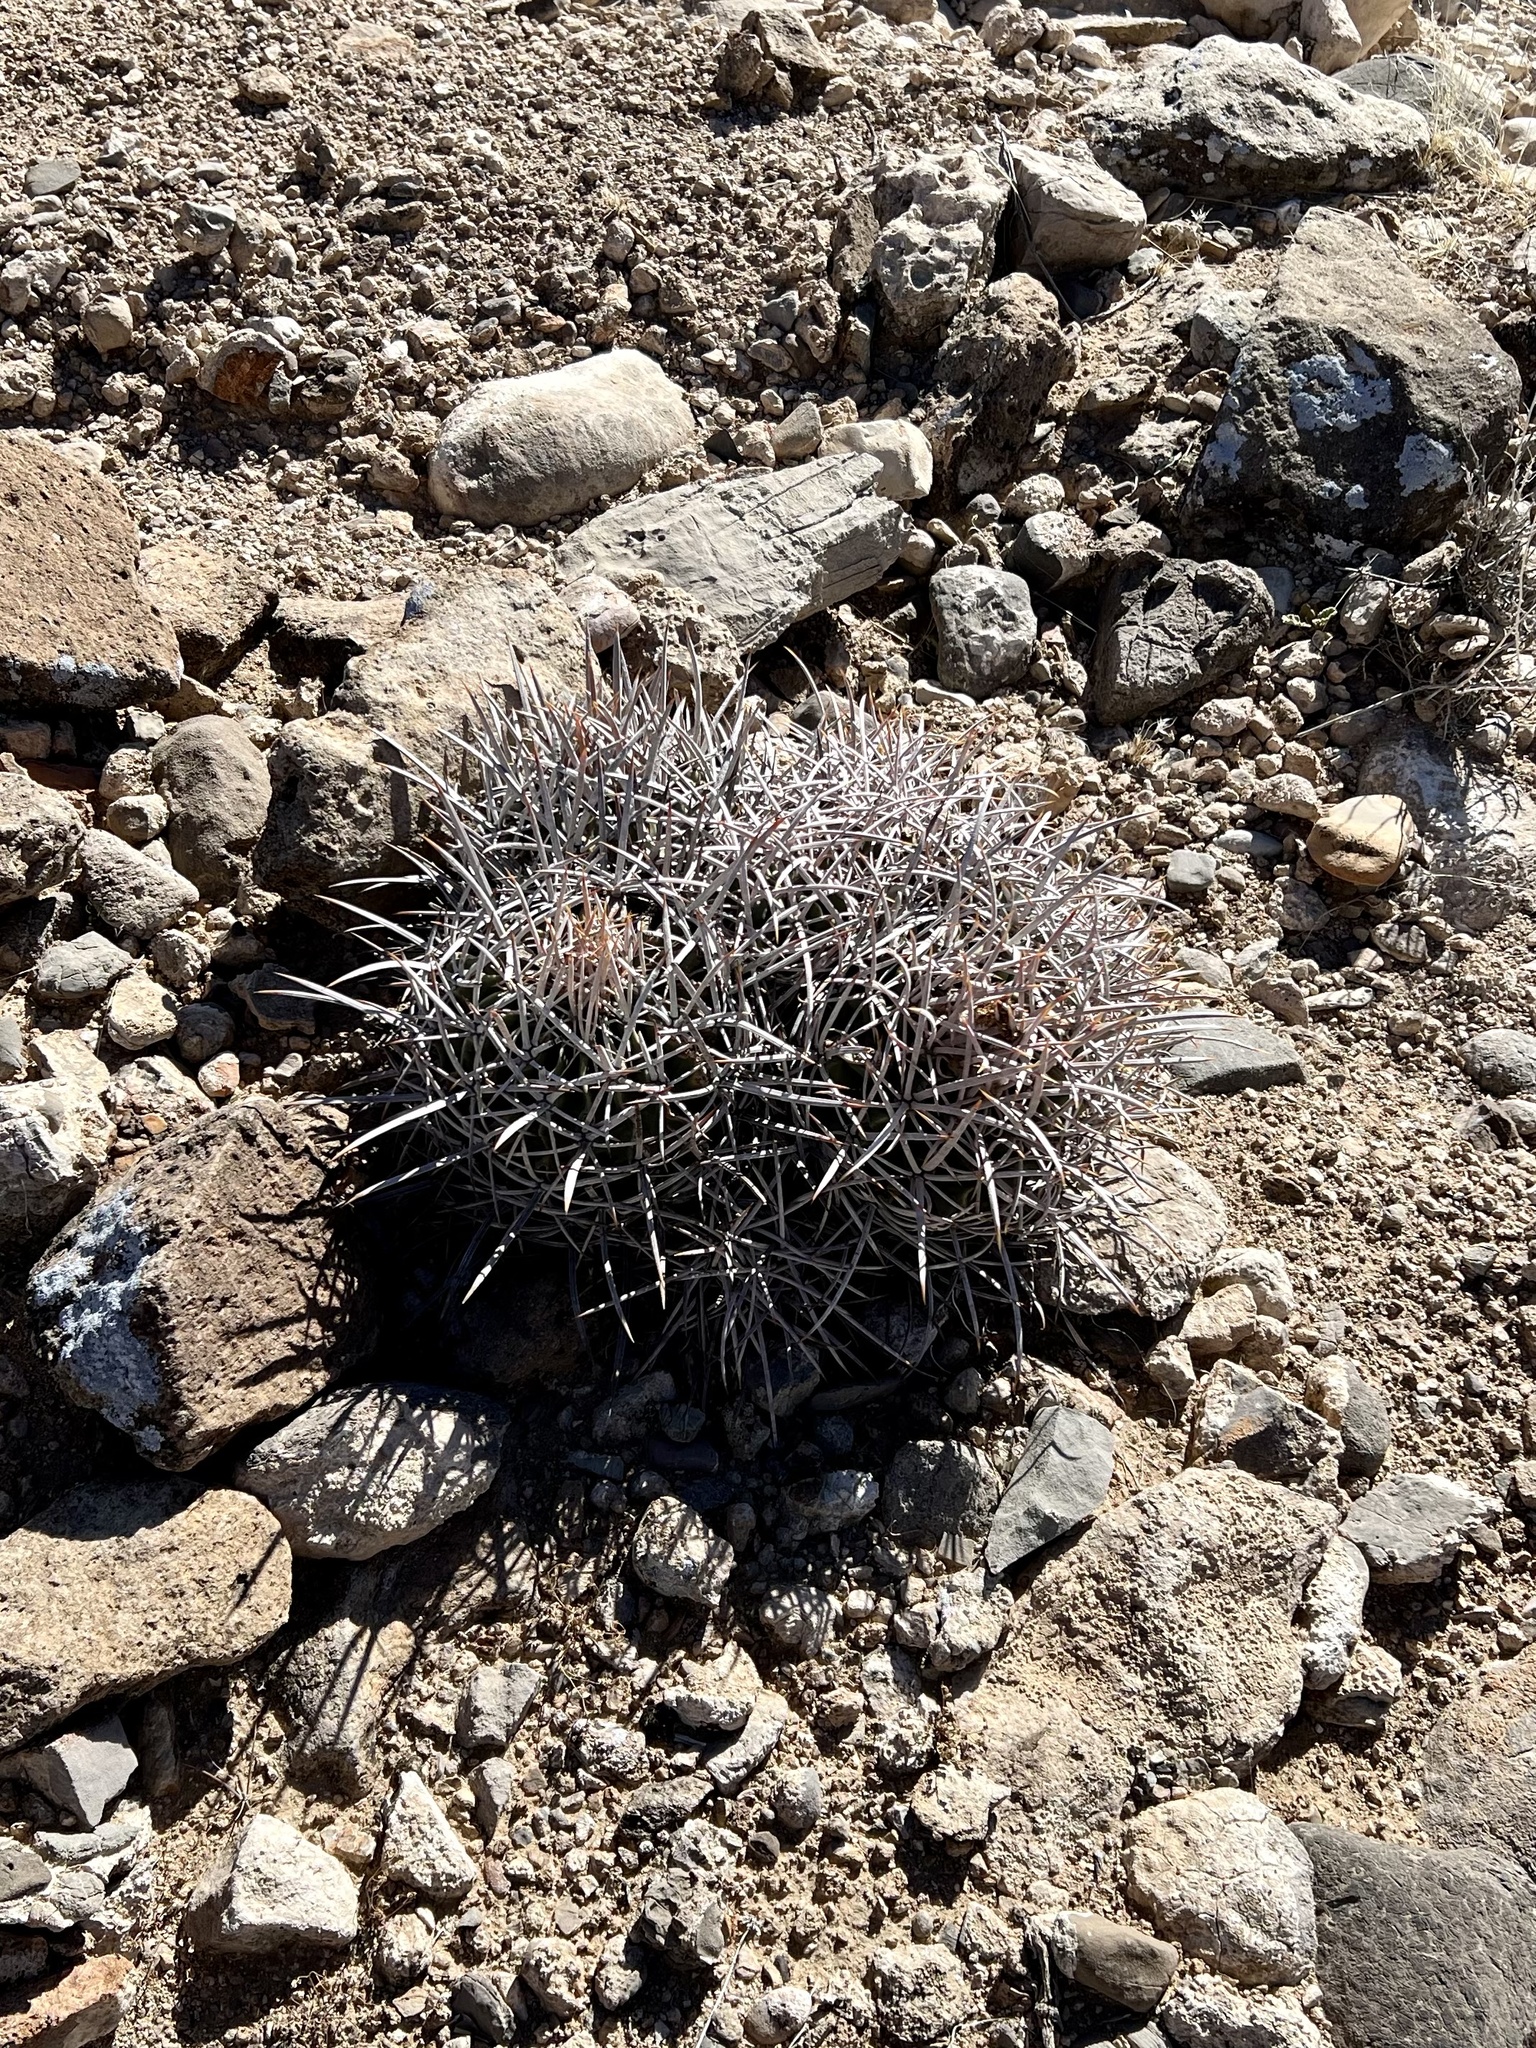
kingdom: Plantae
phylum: Tracheophyta
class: Magnoliopsida
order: Caryophyllales
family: Cactaceae
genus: Echinocactus
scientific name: Echinocactus polycephalus
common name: Cottontop cactus
